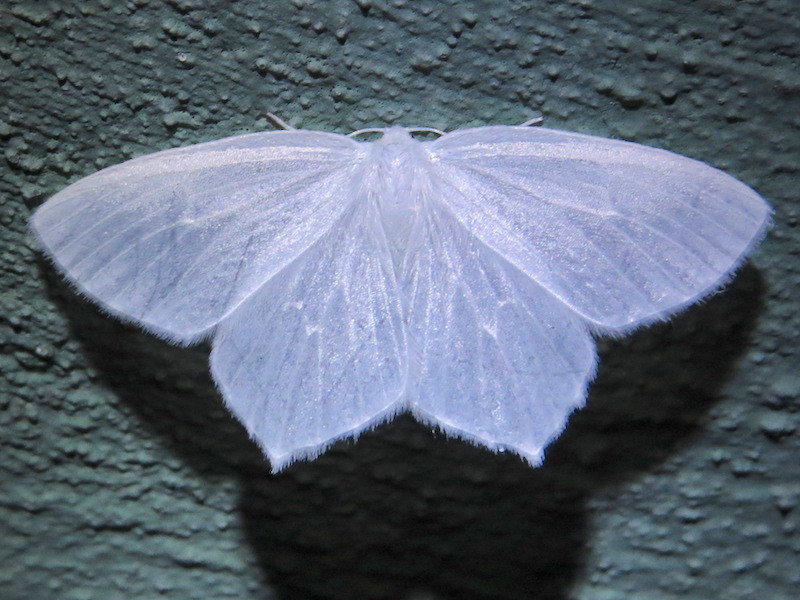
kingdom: Animalia
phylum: Arthropoda
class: Insecta
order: Lepidoptera
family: Geometridae
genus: Eugonobapta
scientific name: Eugonobapta nivosaria
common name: Snowy geometer
